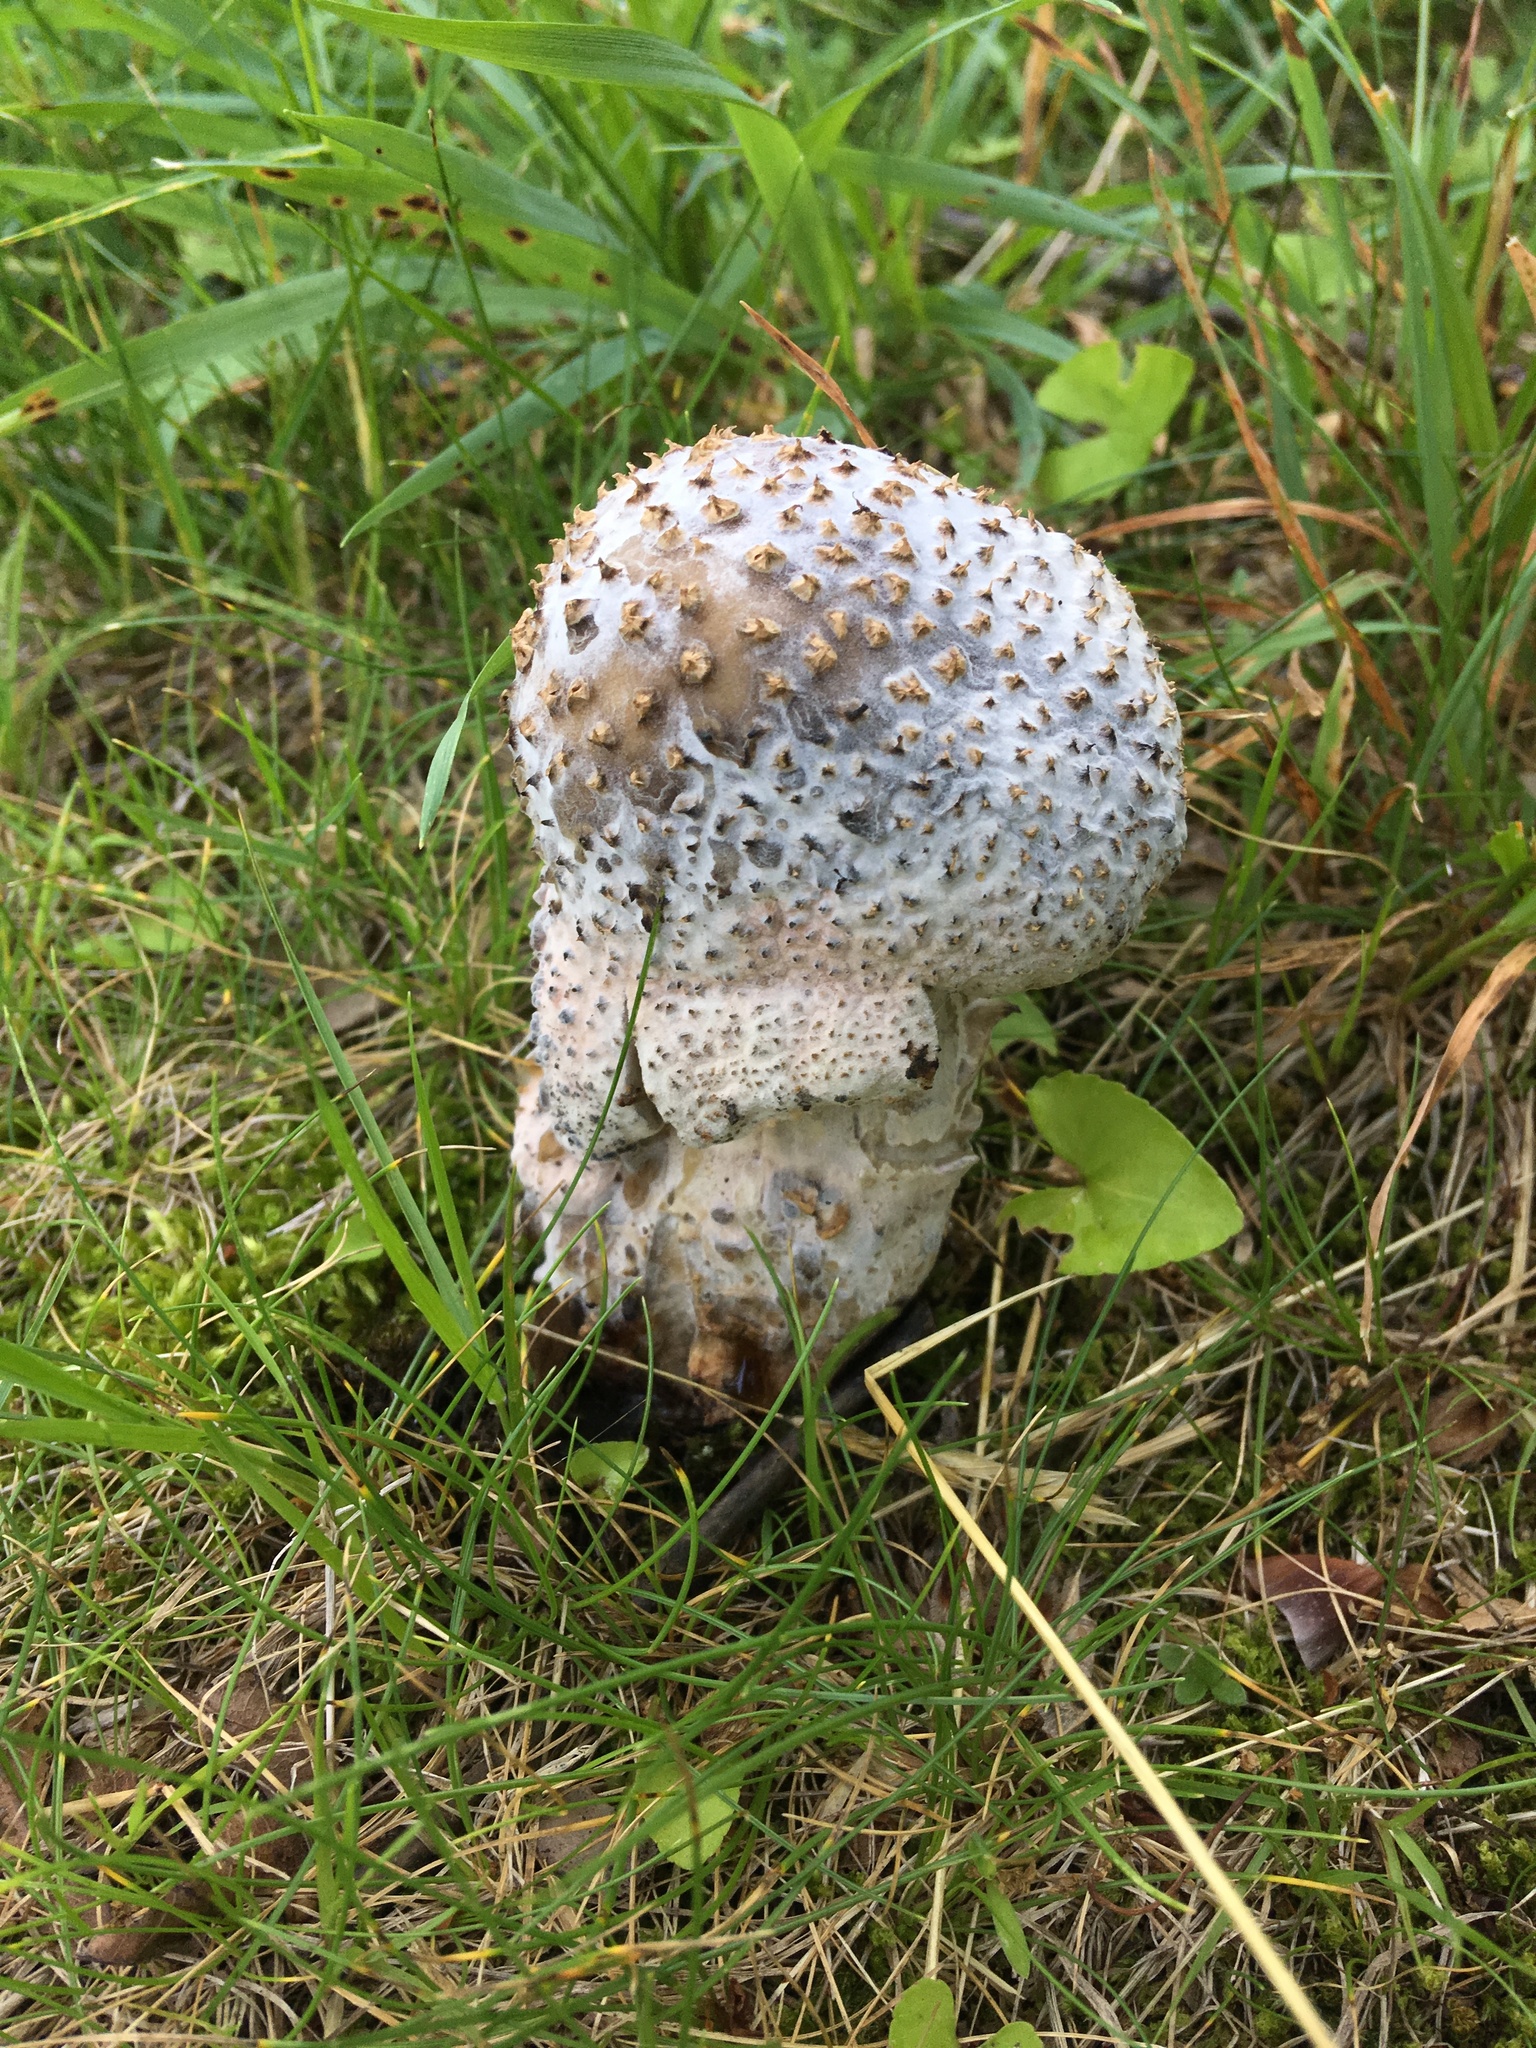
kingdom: Fungi
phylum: Ascomycota
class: Sordariomycetes
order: Hypocreales
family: Hypocreaceae
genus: Hypomyces
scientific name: Hypomyces hyalinus
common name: Amanita mold
